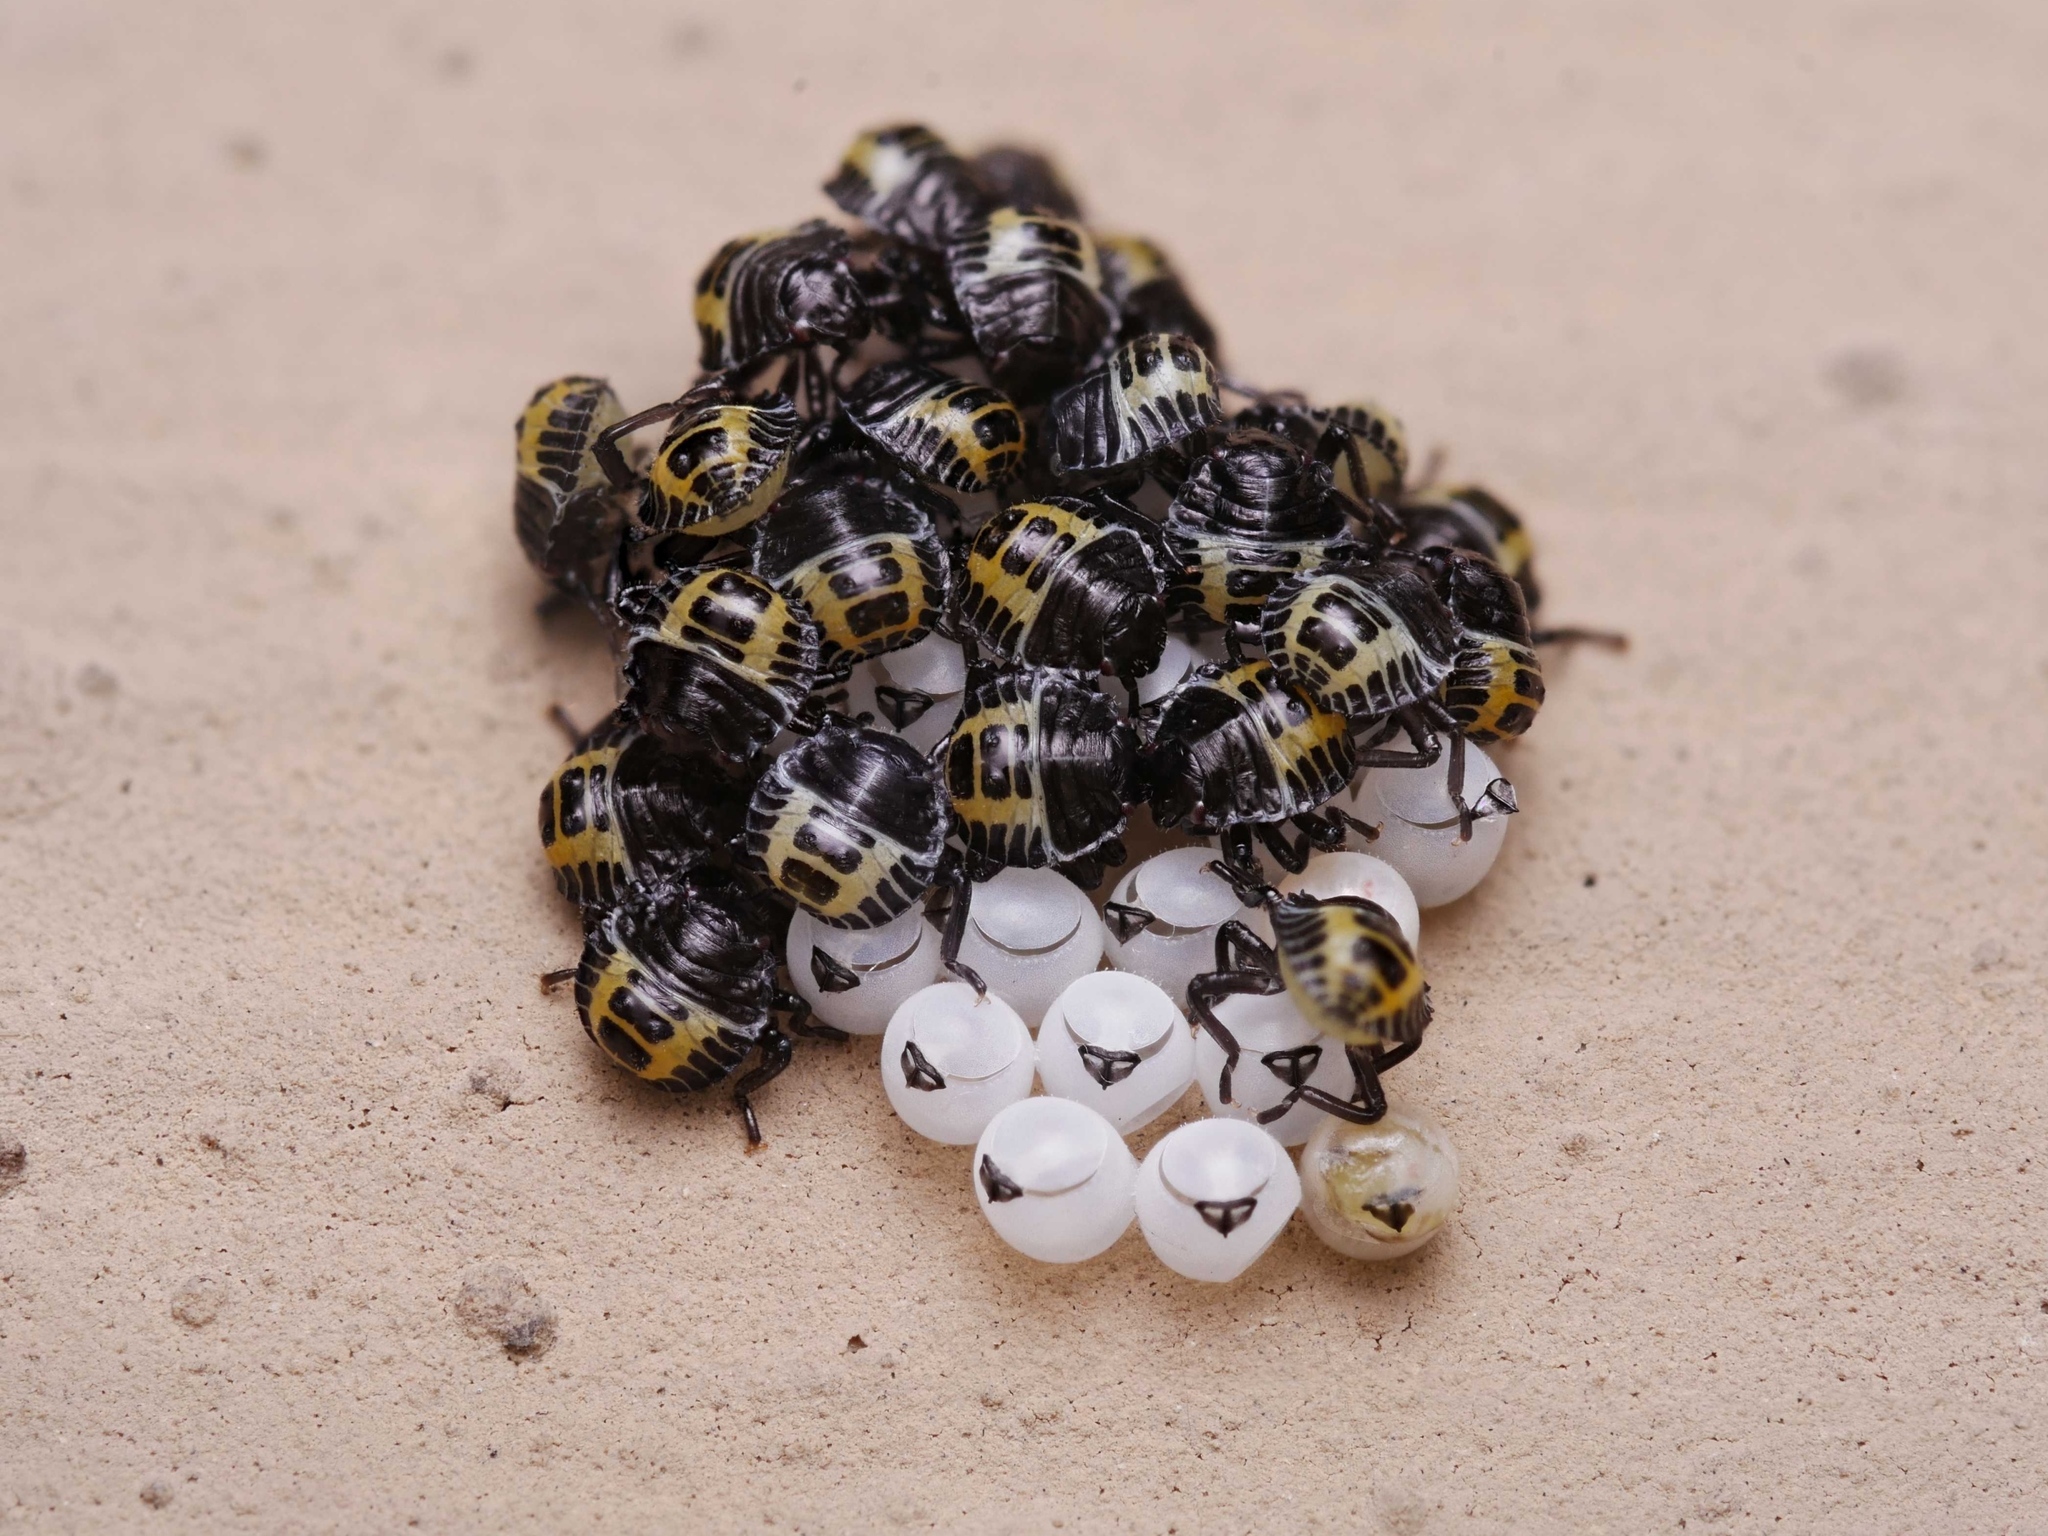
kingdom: Animalia
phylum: Arthropoda
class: Insecta
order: Hemiptera
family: Pentatomidae
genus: Halyomorpha
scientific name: Halyomorpha halys
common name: Brown marmorated stink bug
